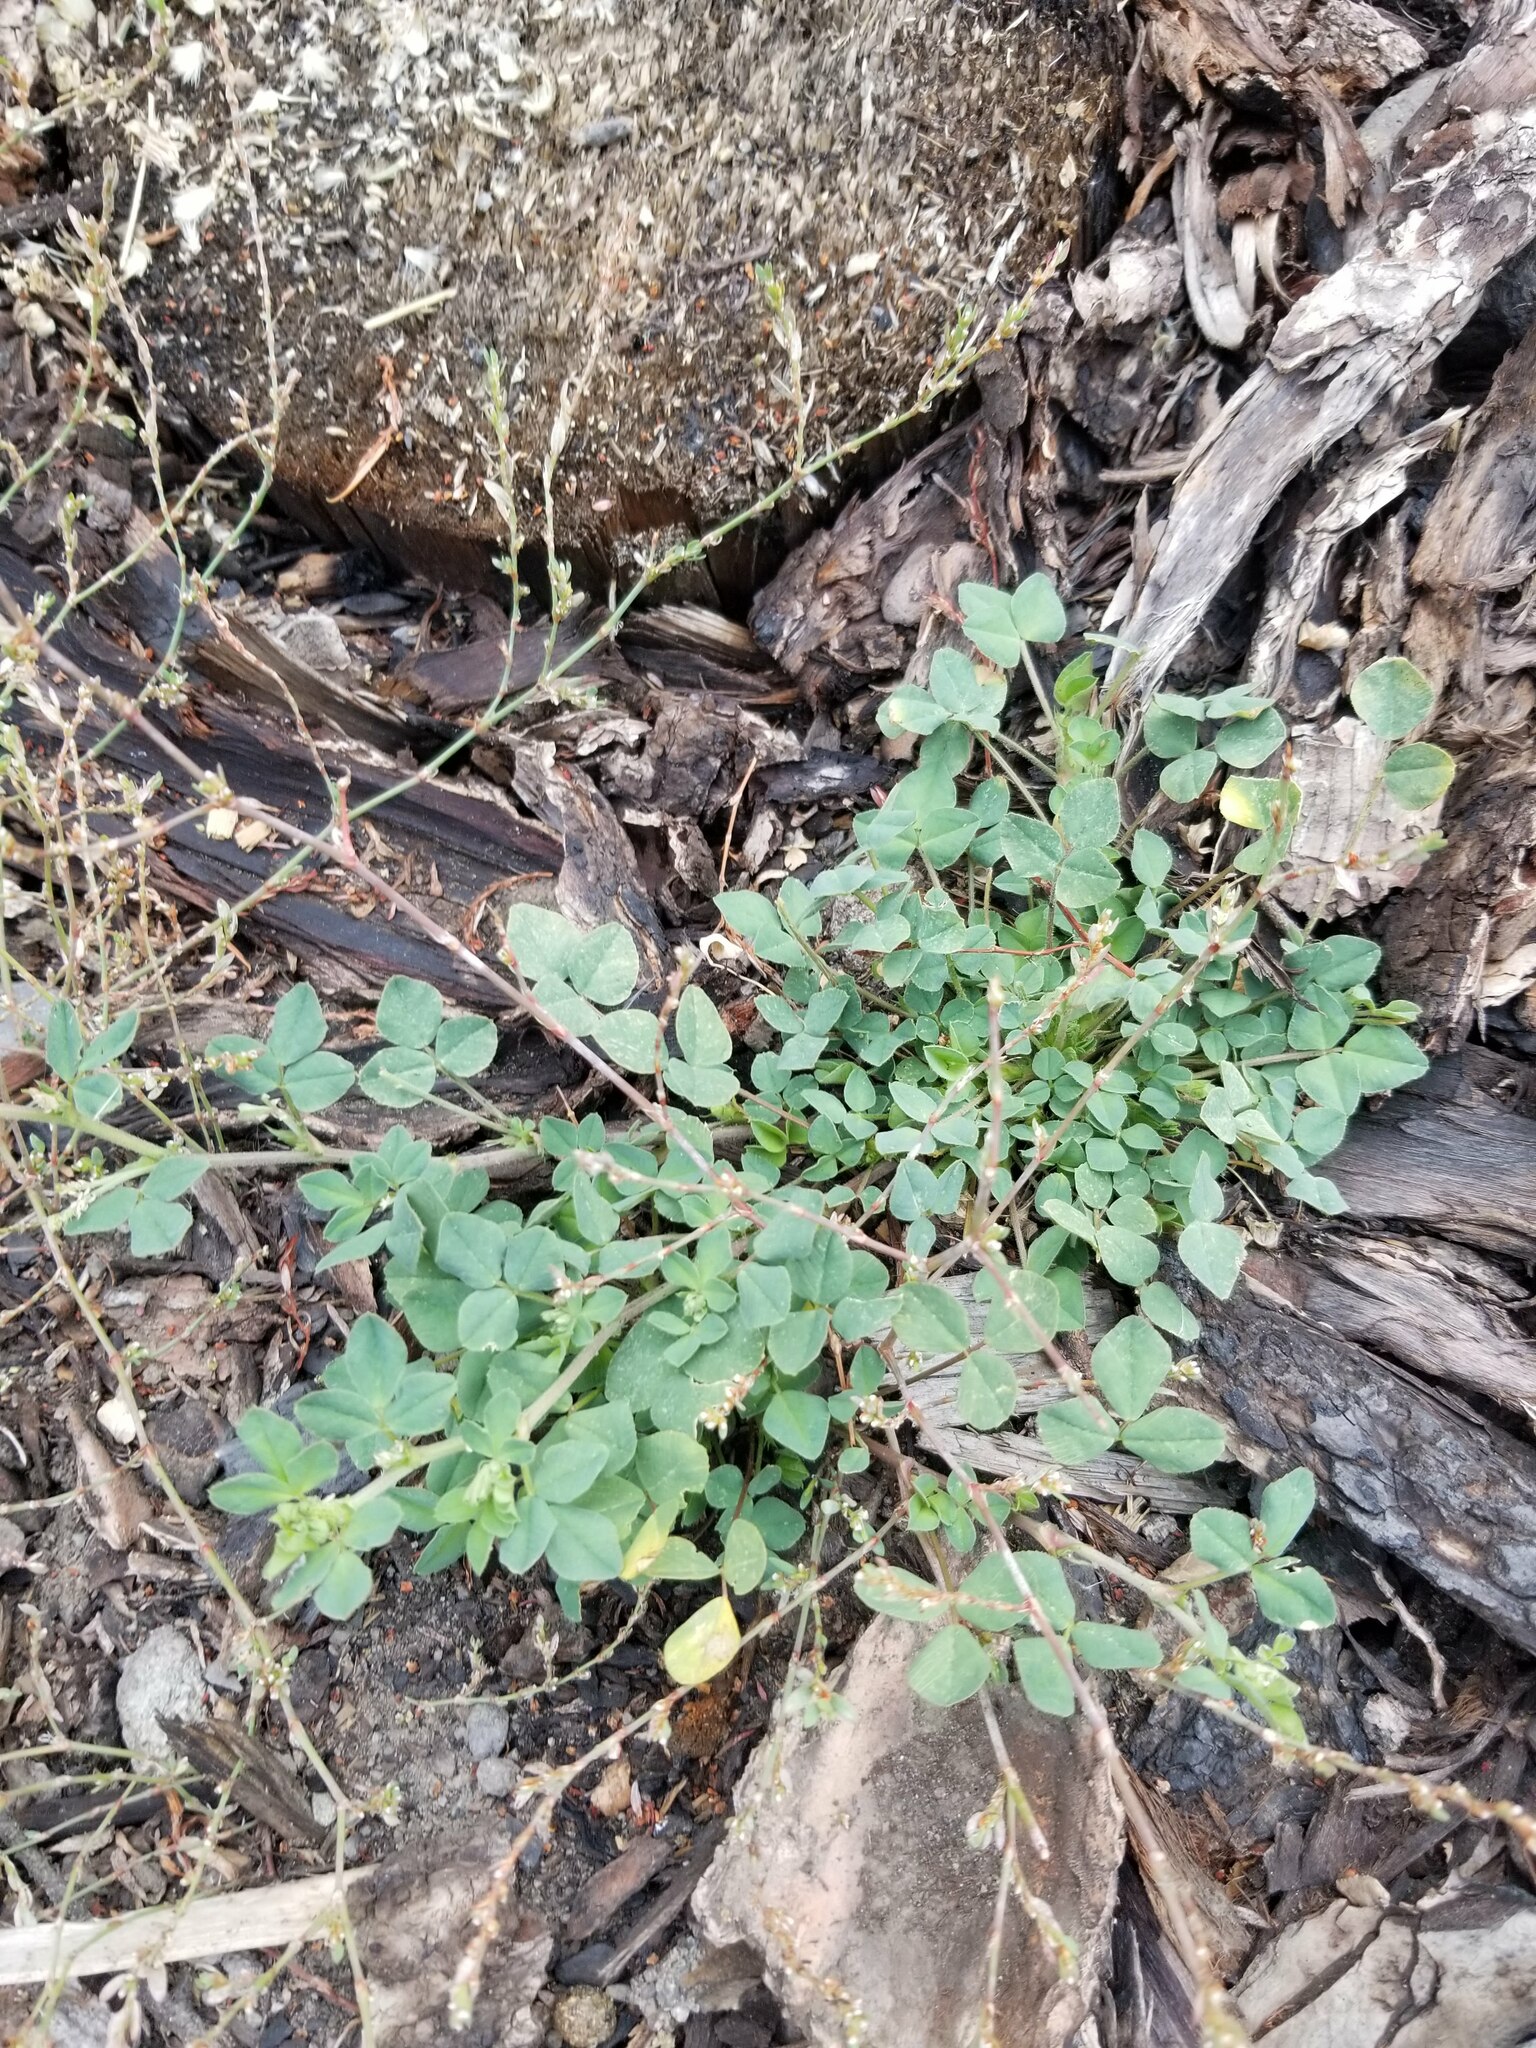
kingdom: Plantae
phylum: Tracheophyta
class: Magnoliopsida
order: Fabales
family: Fabaceae
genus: Medicago
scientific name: Medicago lupulina
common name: Black medick
